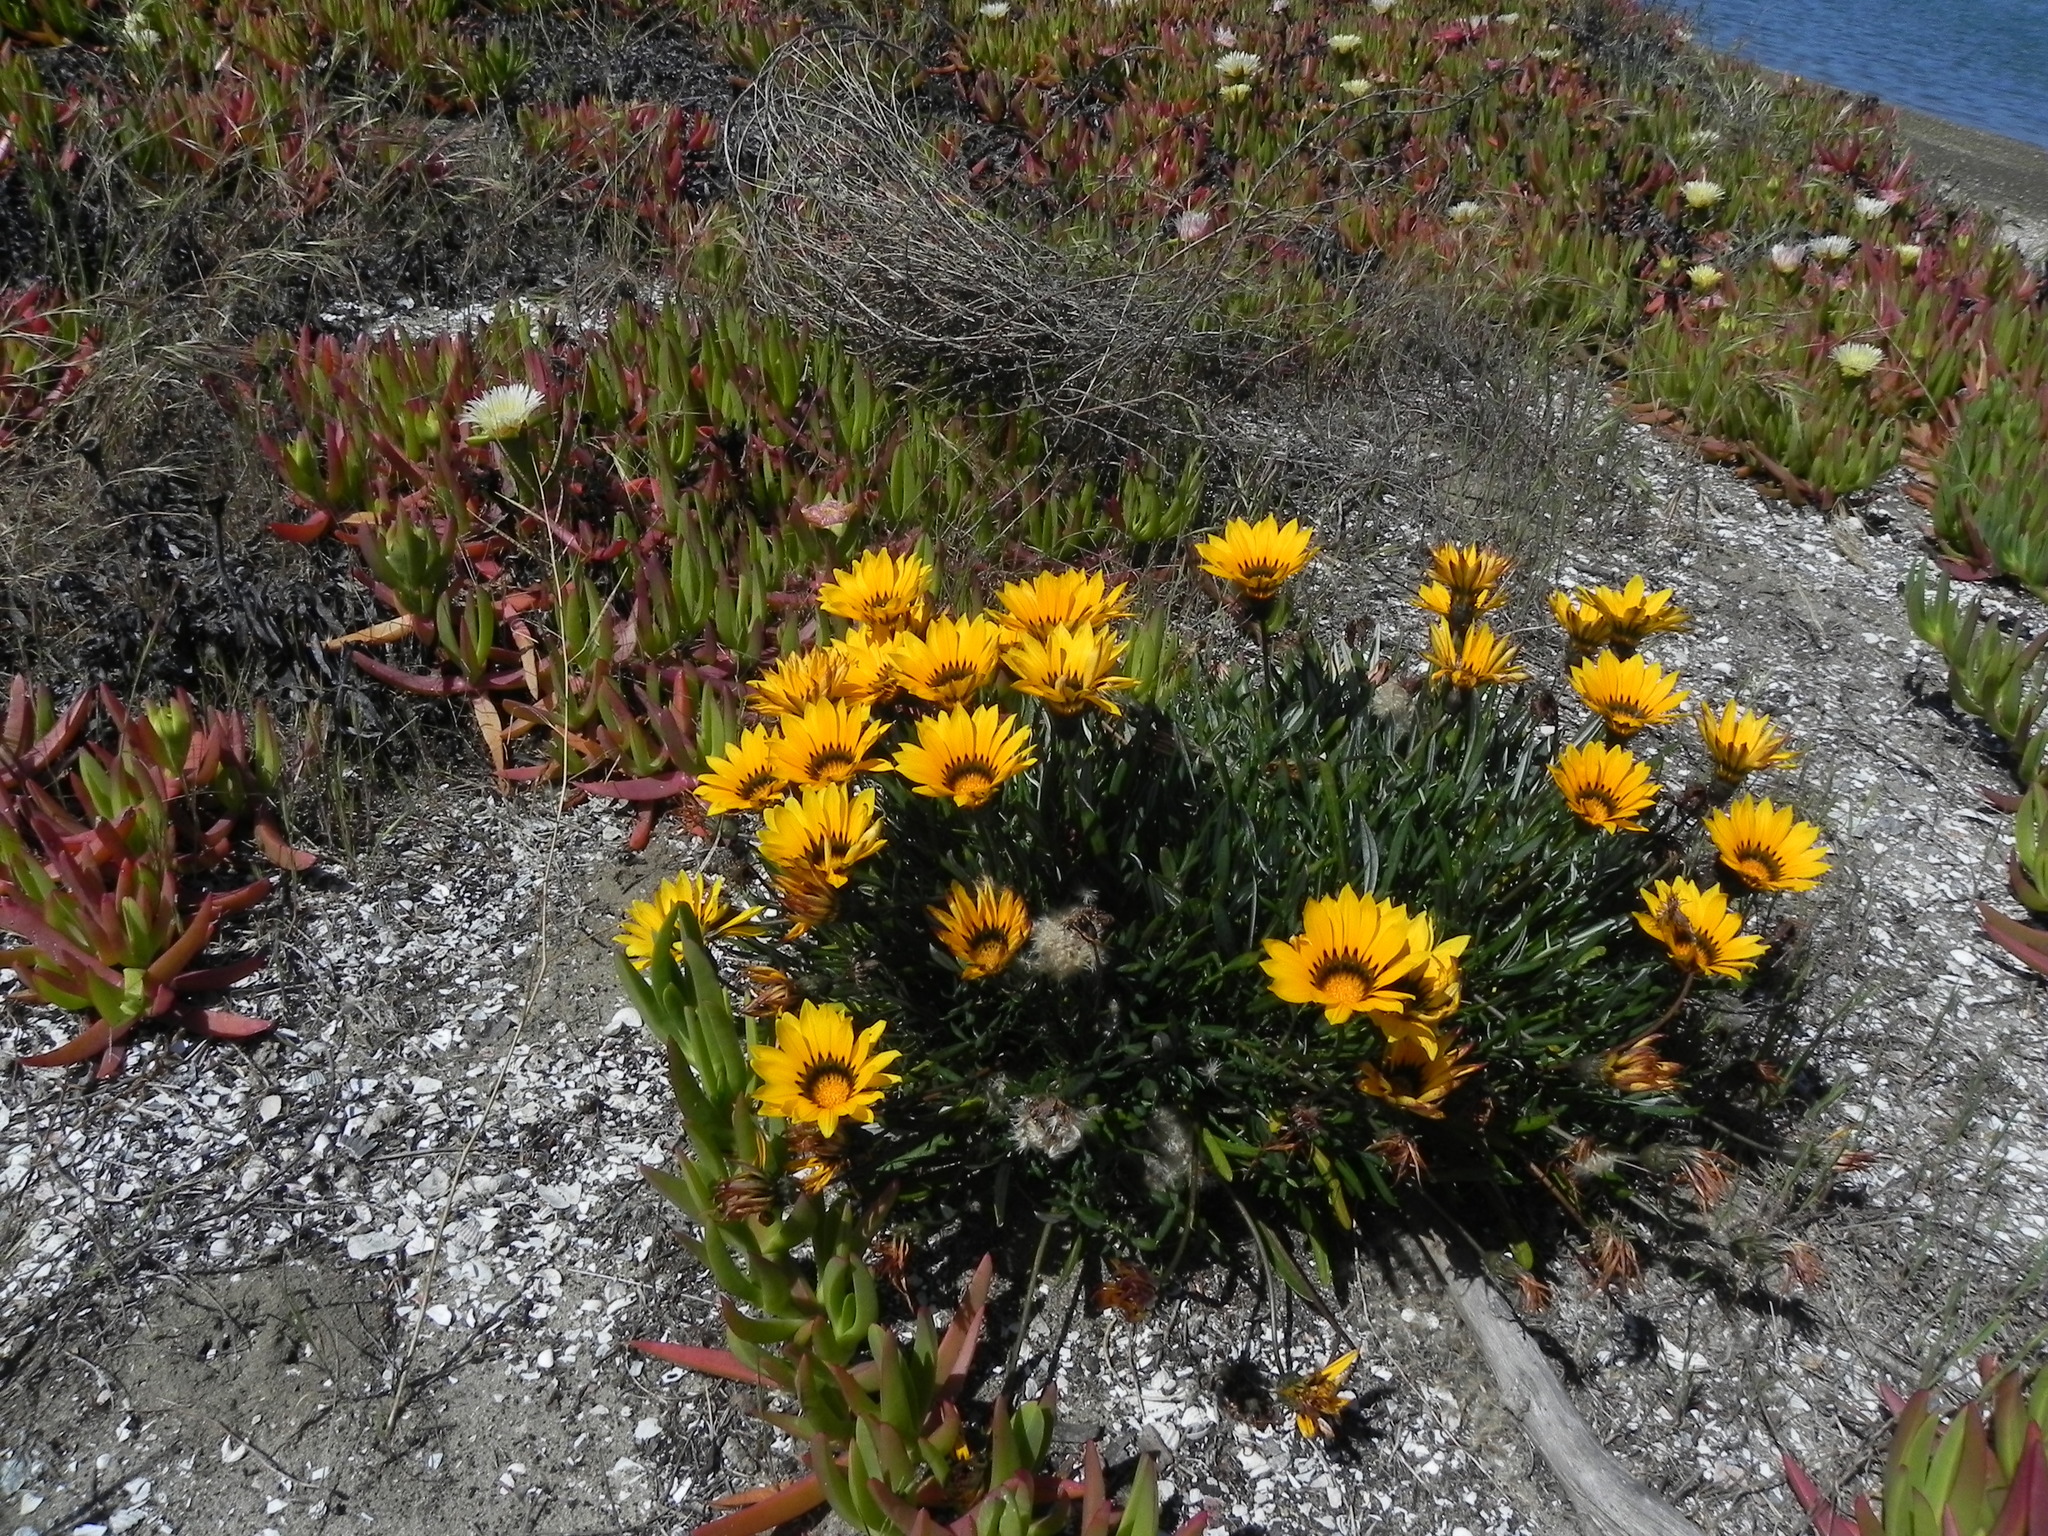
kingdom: Plantae
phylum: Tracheophyta
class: Magnoliopsida
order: Asterales
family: Asteraceae
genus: Gazania
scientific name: Gazania linearis
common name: Treasureflower
